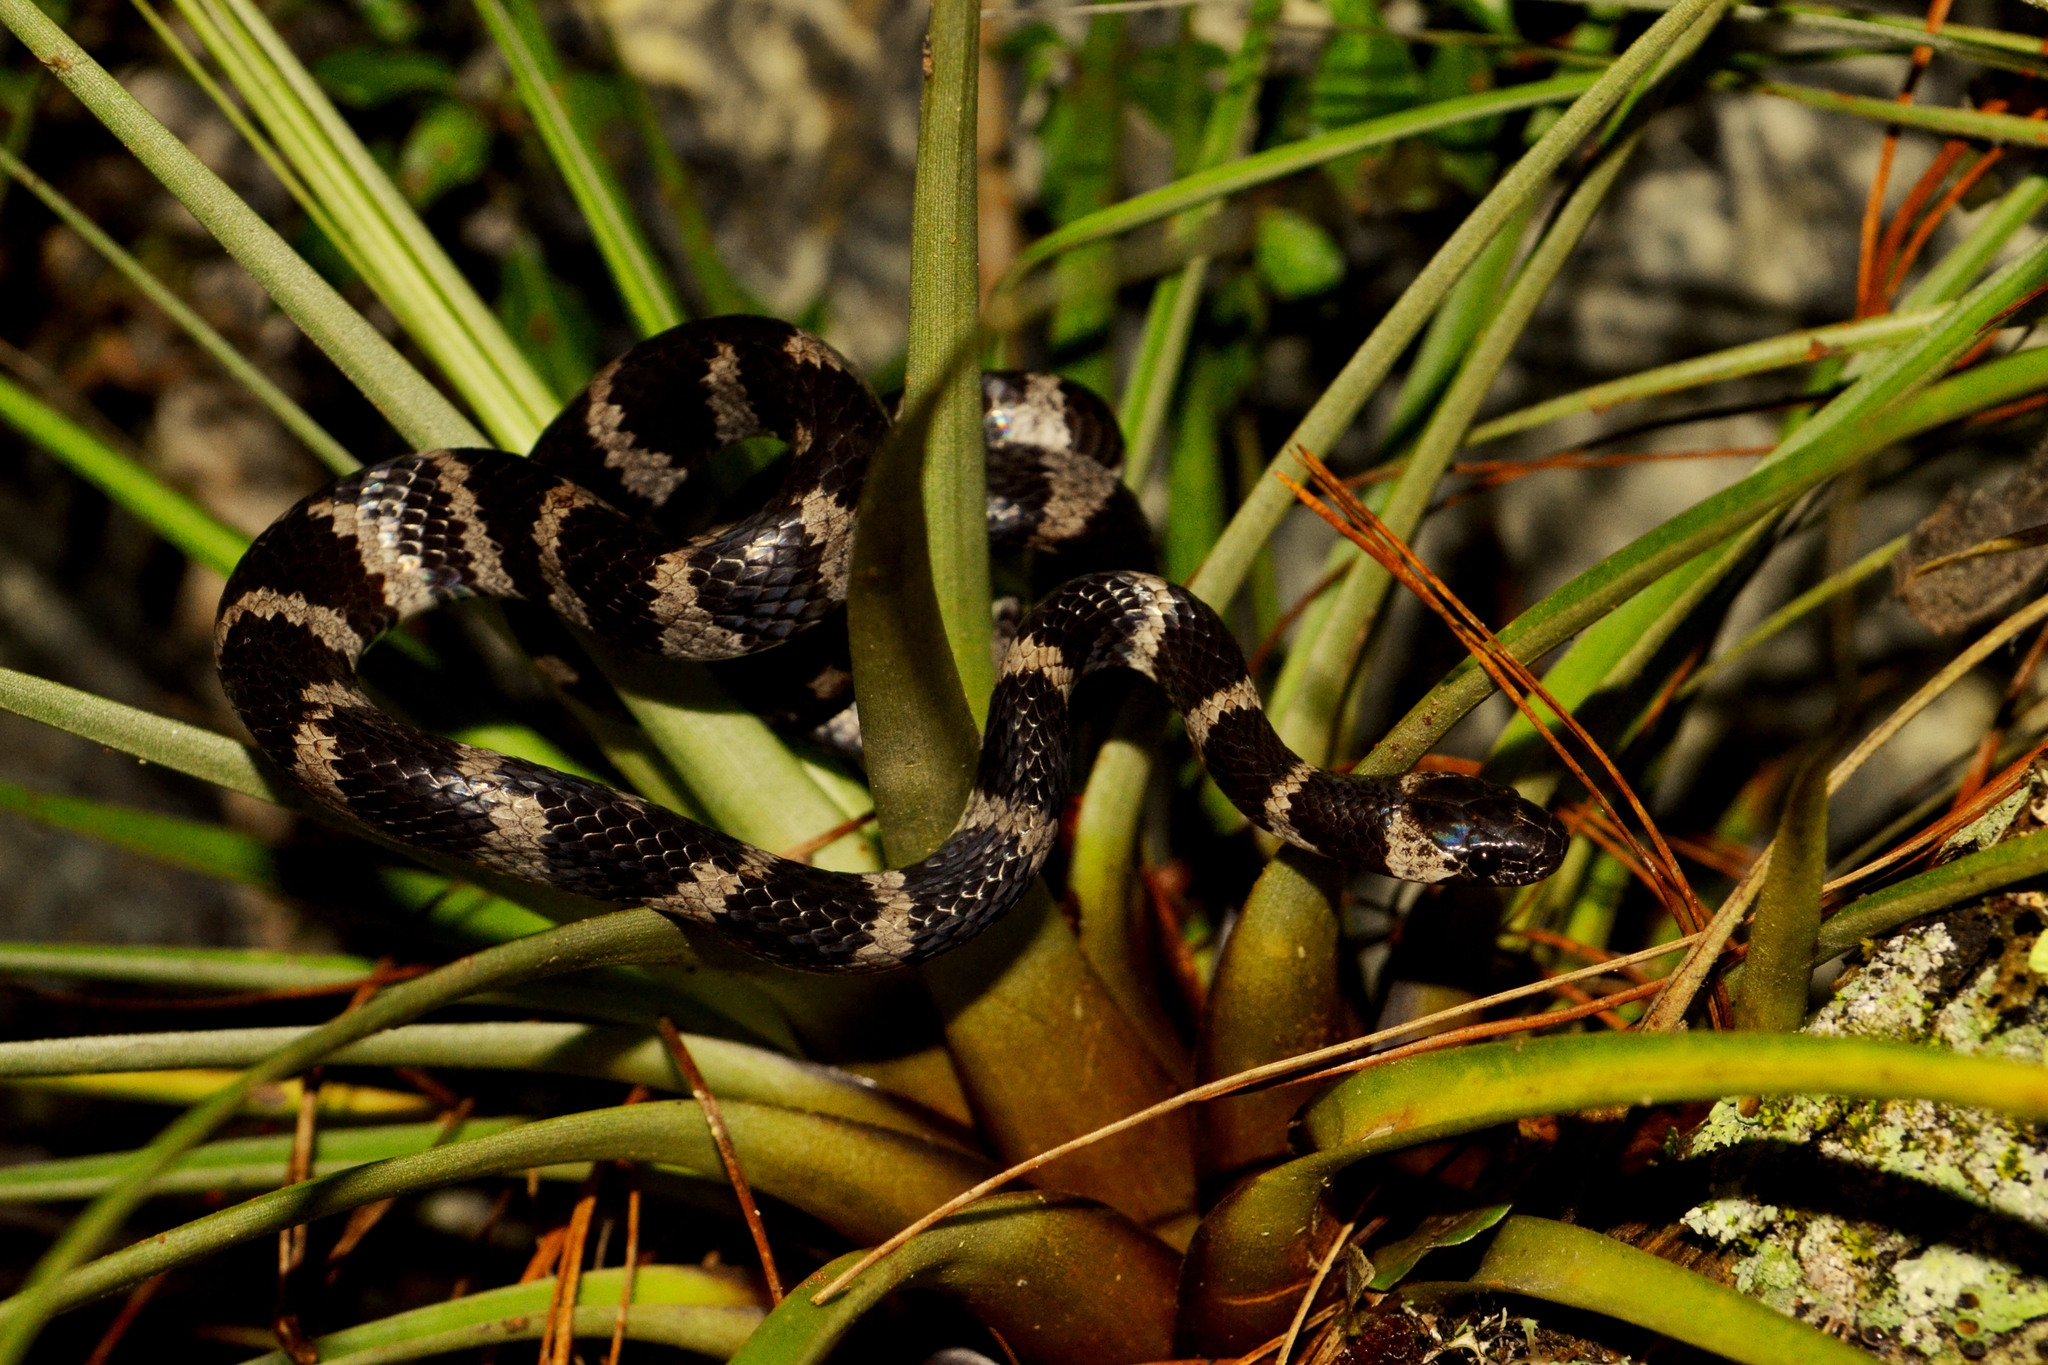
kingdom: Animalia
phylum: Chordata
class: Squamata
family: Colubridae
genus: Tropidodipsas
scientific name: Tropidodipsas fischeri
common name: Fischer’s snail-eating snake
